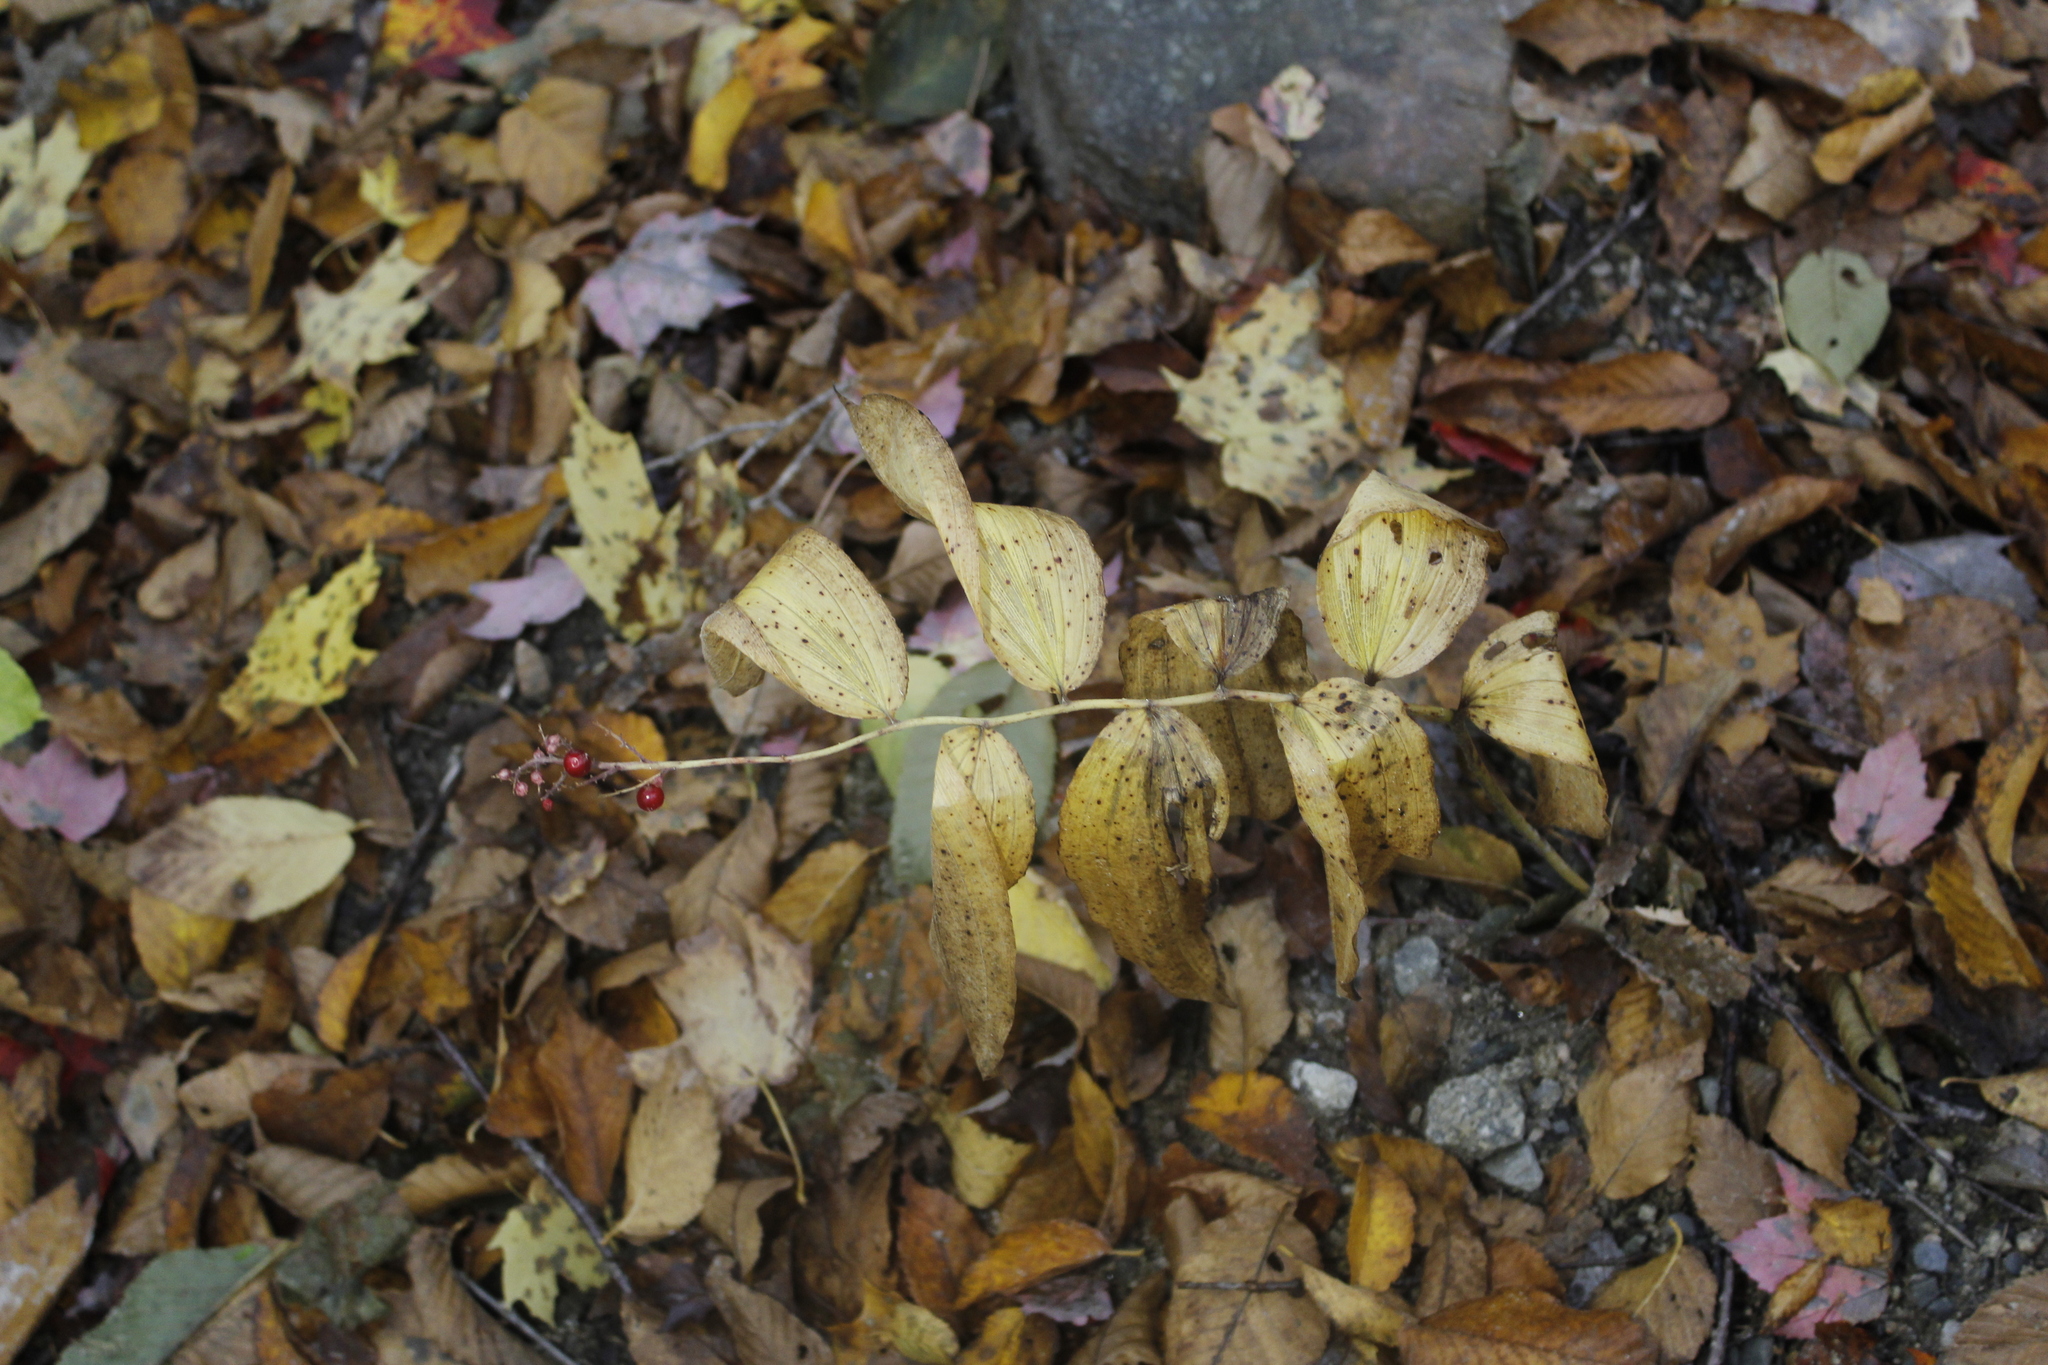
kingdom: Plantae
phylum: Tracheophyta
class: Liliopsida
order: Asparagales
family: Asparagaceae
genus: Maianthemum
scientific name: Maianthemum racemosum
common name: False spikenard
